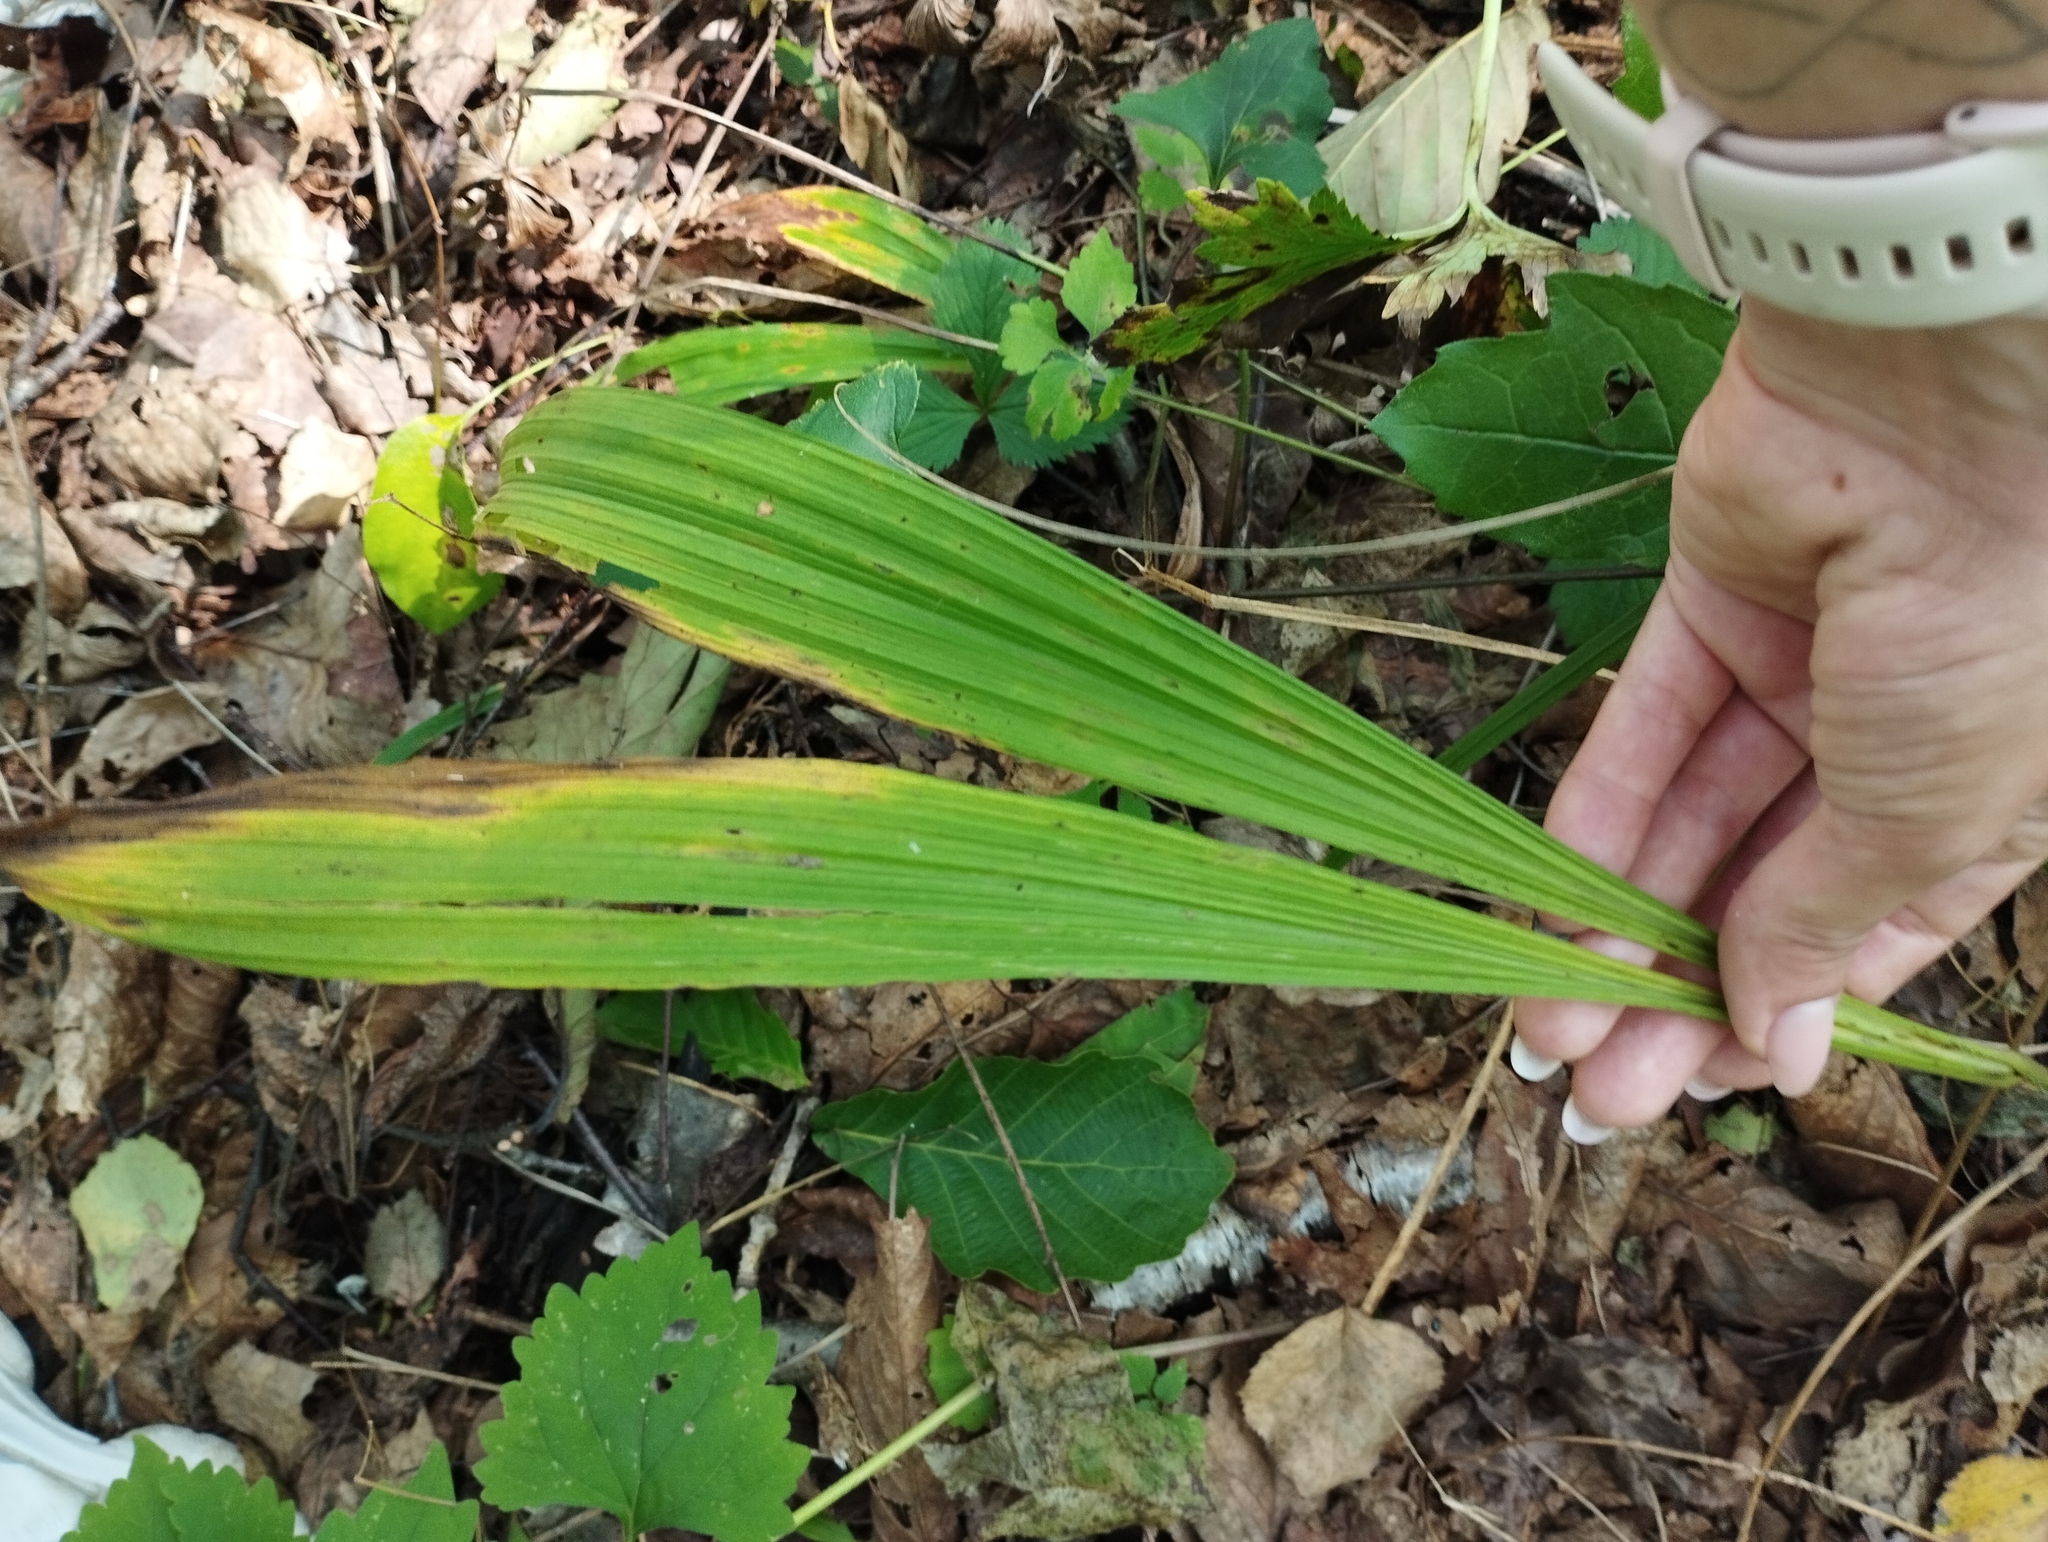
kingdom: Plantae
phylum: Tracheophyta
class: Liliopsida
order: Liliales
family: Melanthiaceae
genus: Veratrum
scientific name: Veratrum maackii
